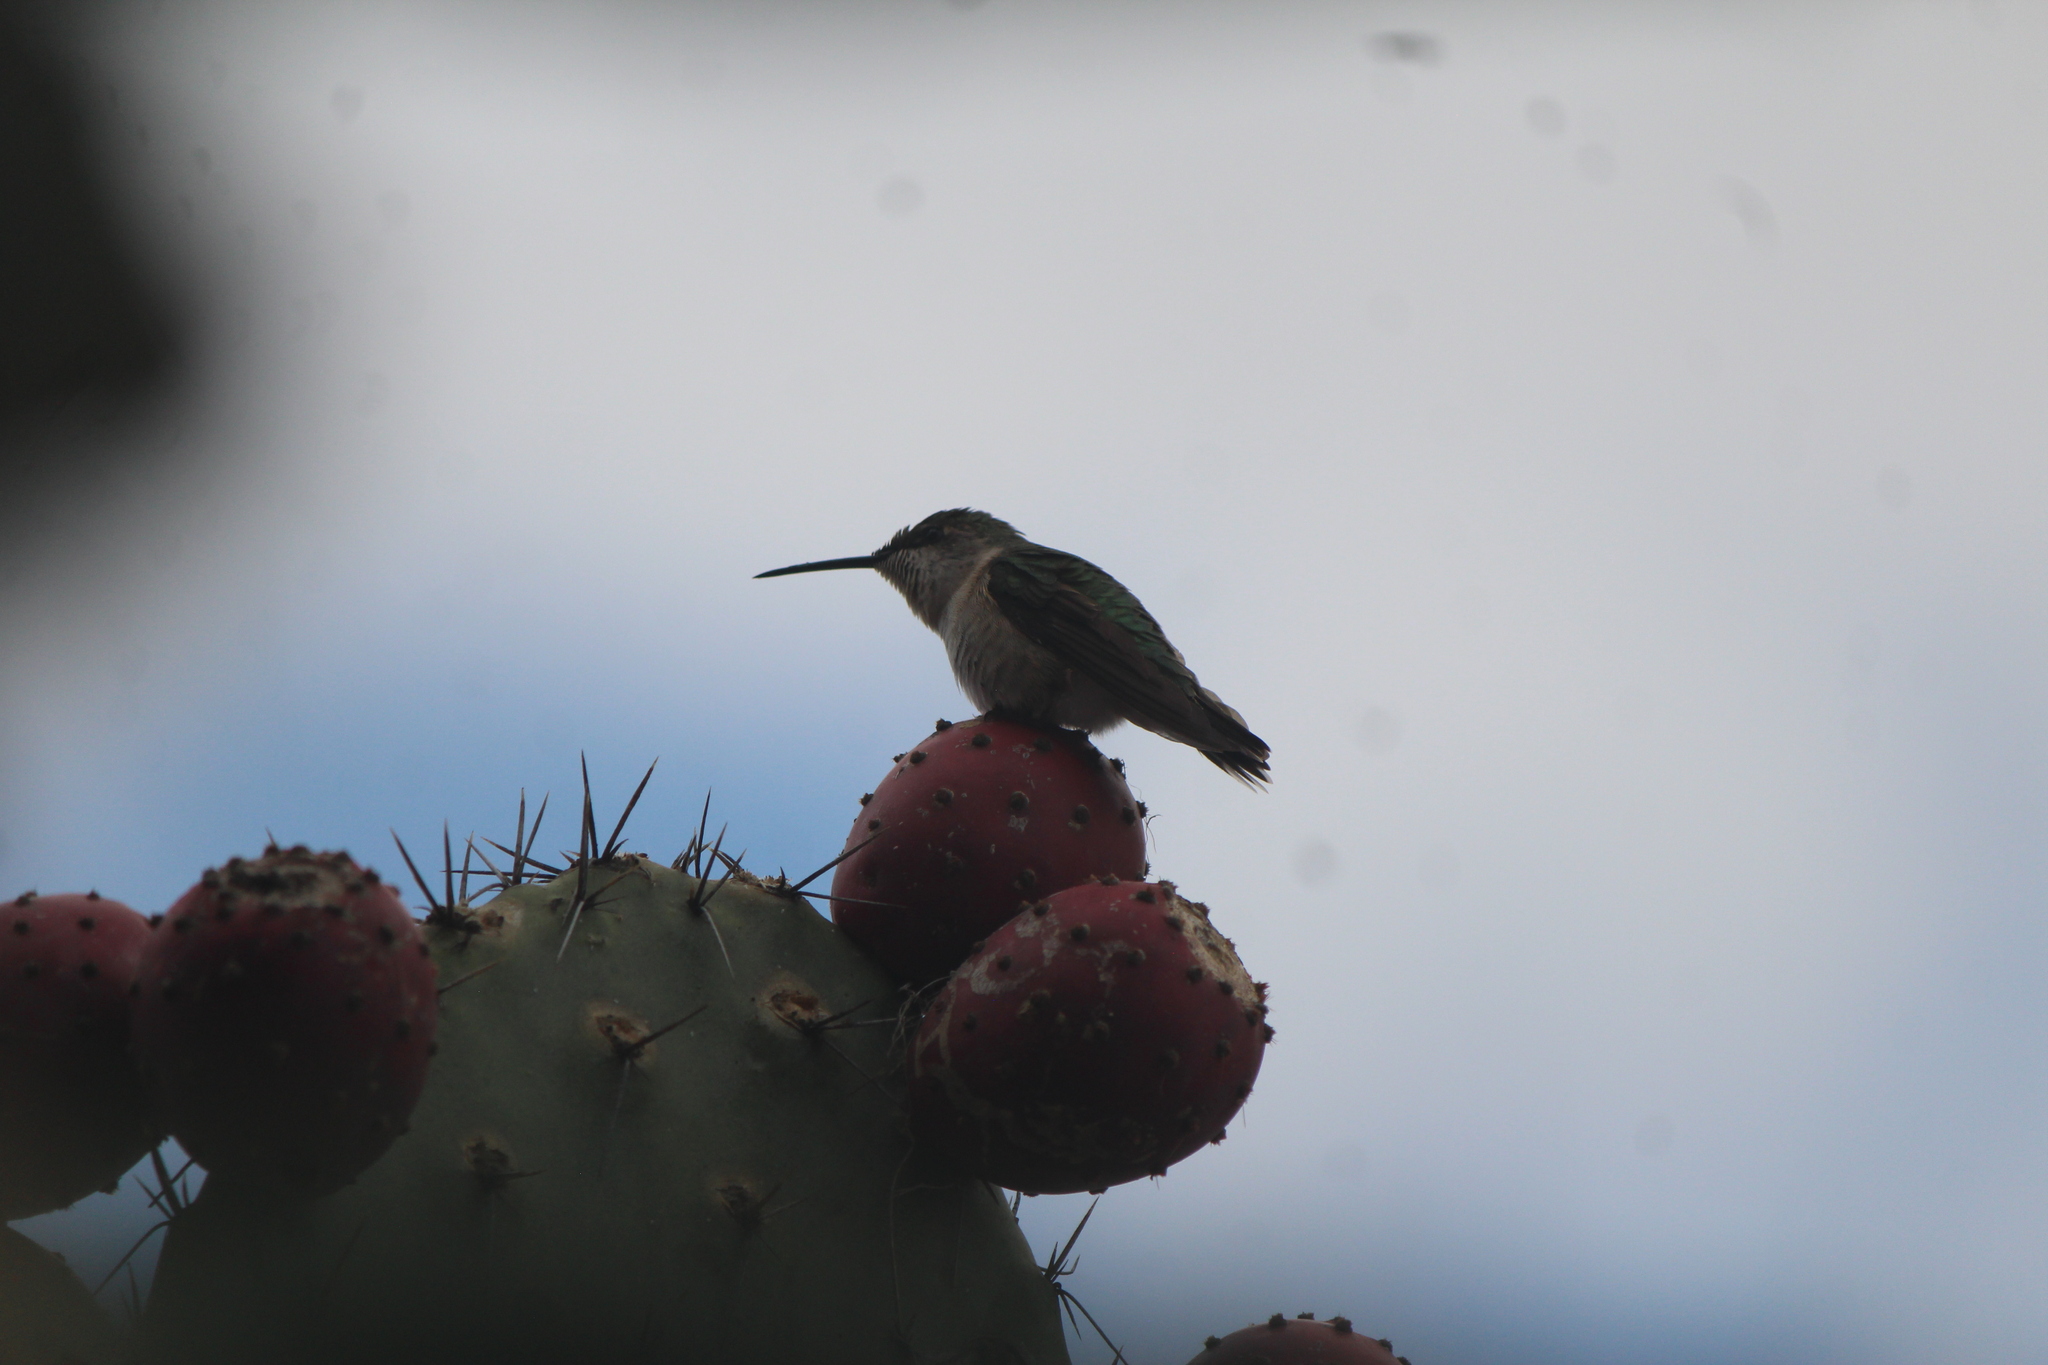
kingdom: Animalia
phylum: Chordata
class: Aves
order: Apodiformes
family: Trochilidae
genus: Archilochus
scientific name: Archilochus colubris
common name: Ruby-throated hummingbird
